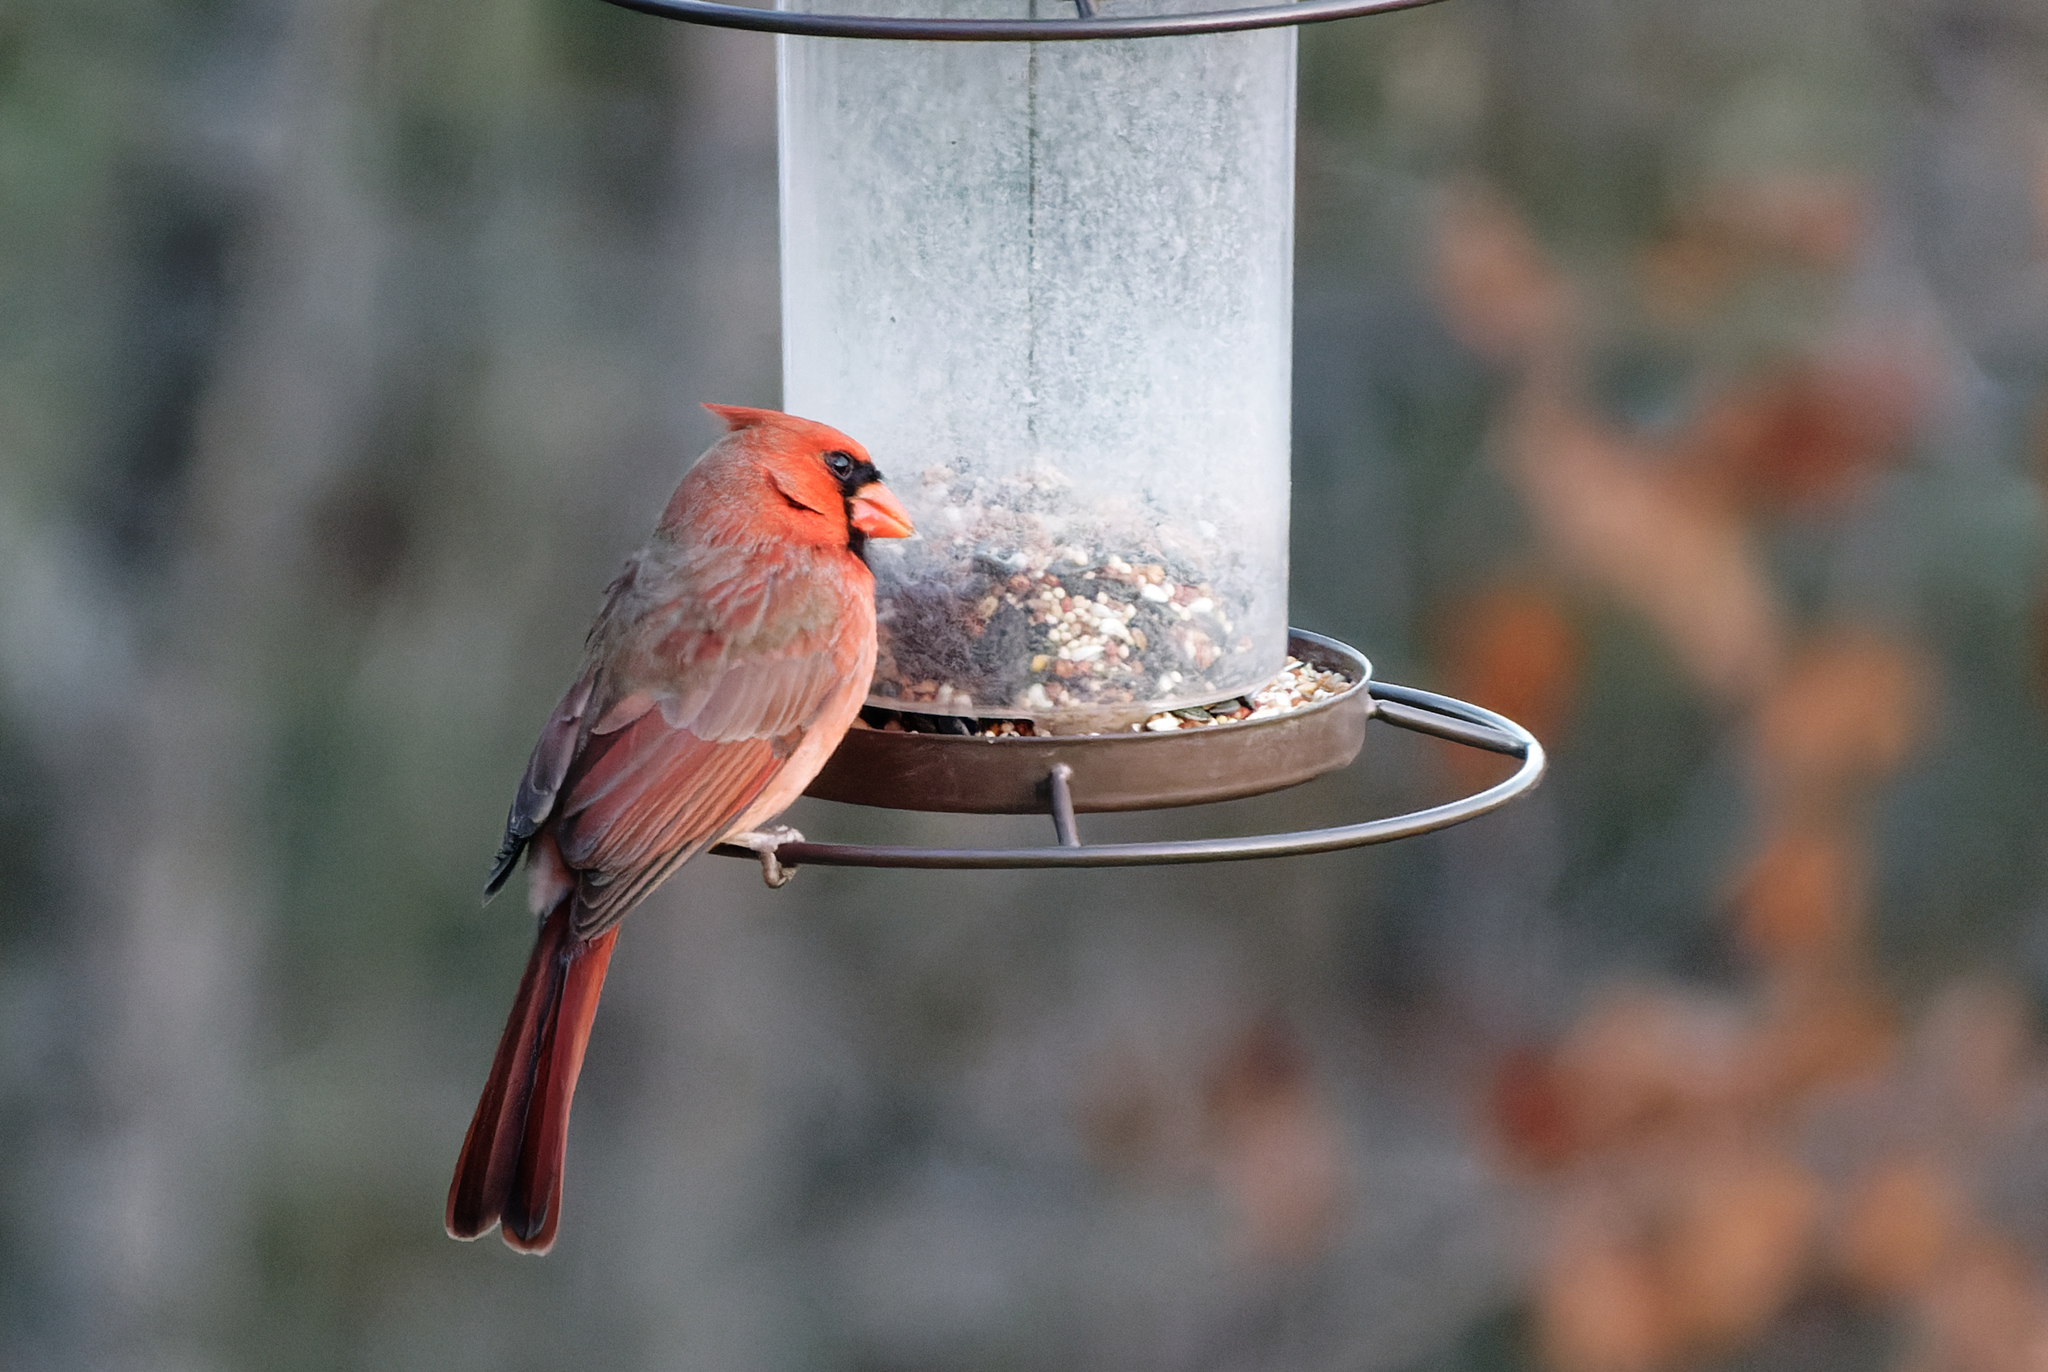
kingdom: Animalia
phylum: Chordata
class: Aves
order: Passeriformes
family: Cardinalidae
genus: Cardinalis
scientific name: Cardinalis cardinalis
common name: Northern cardinal
